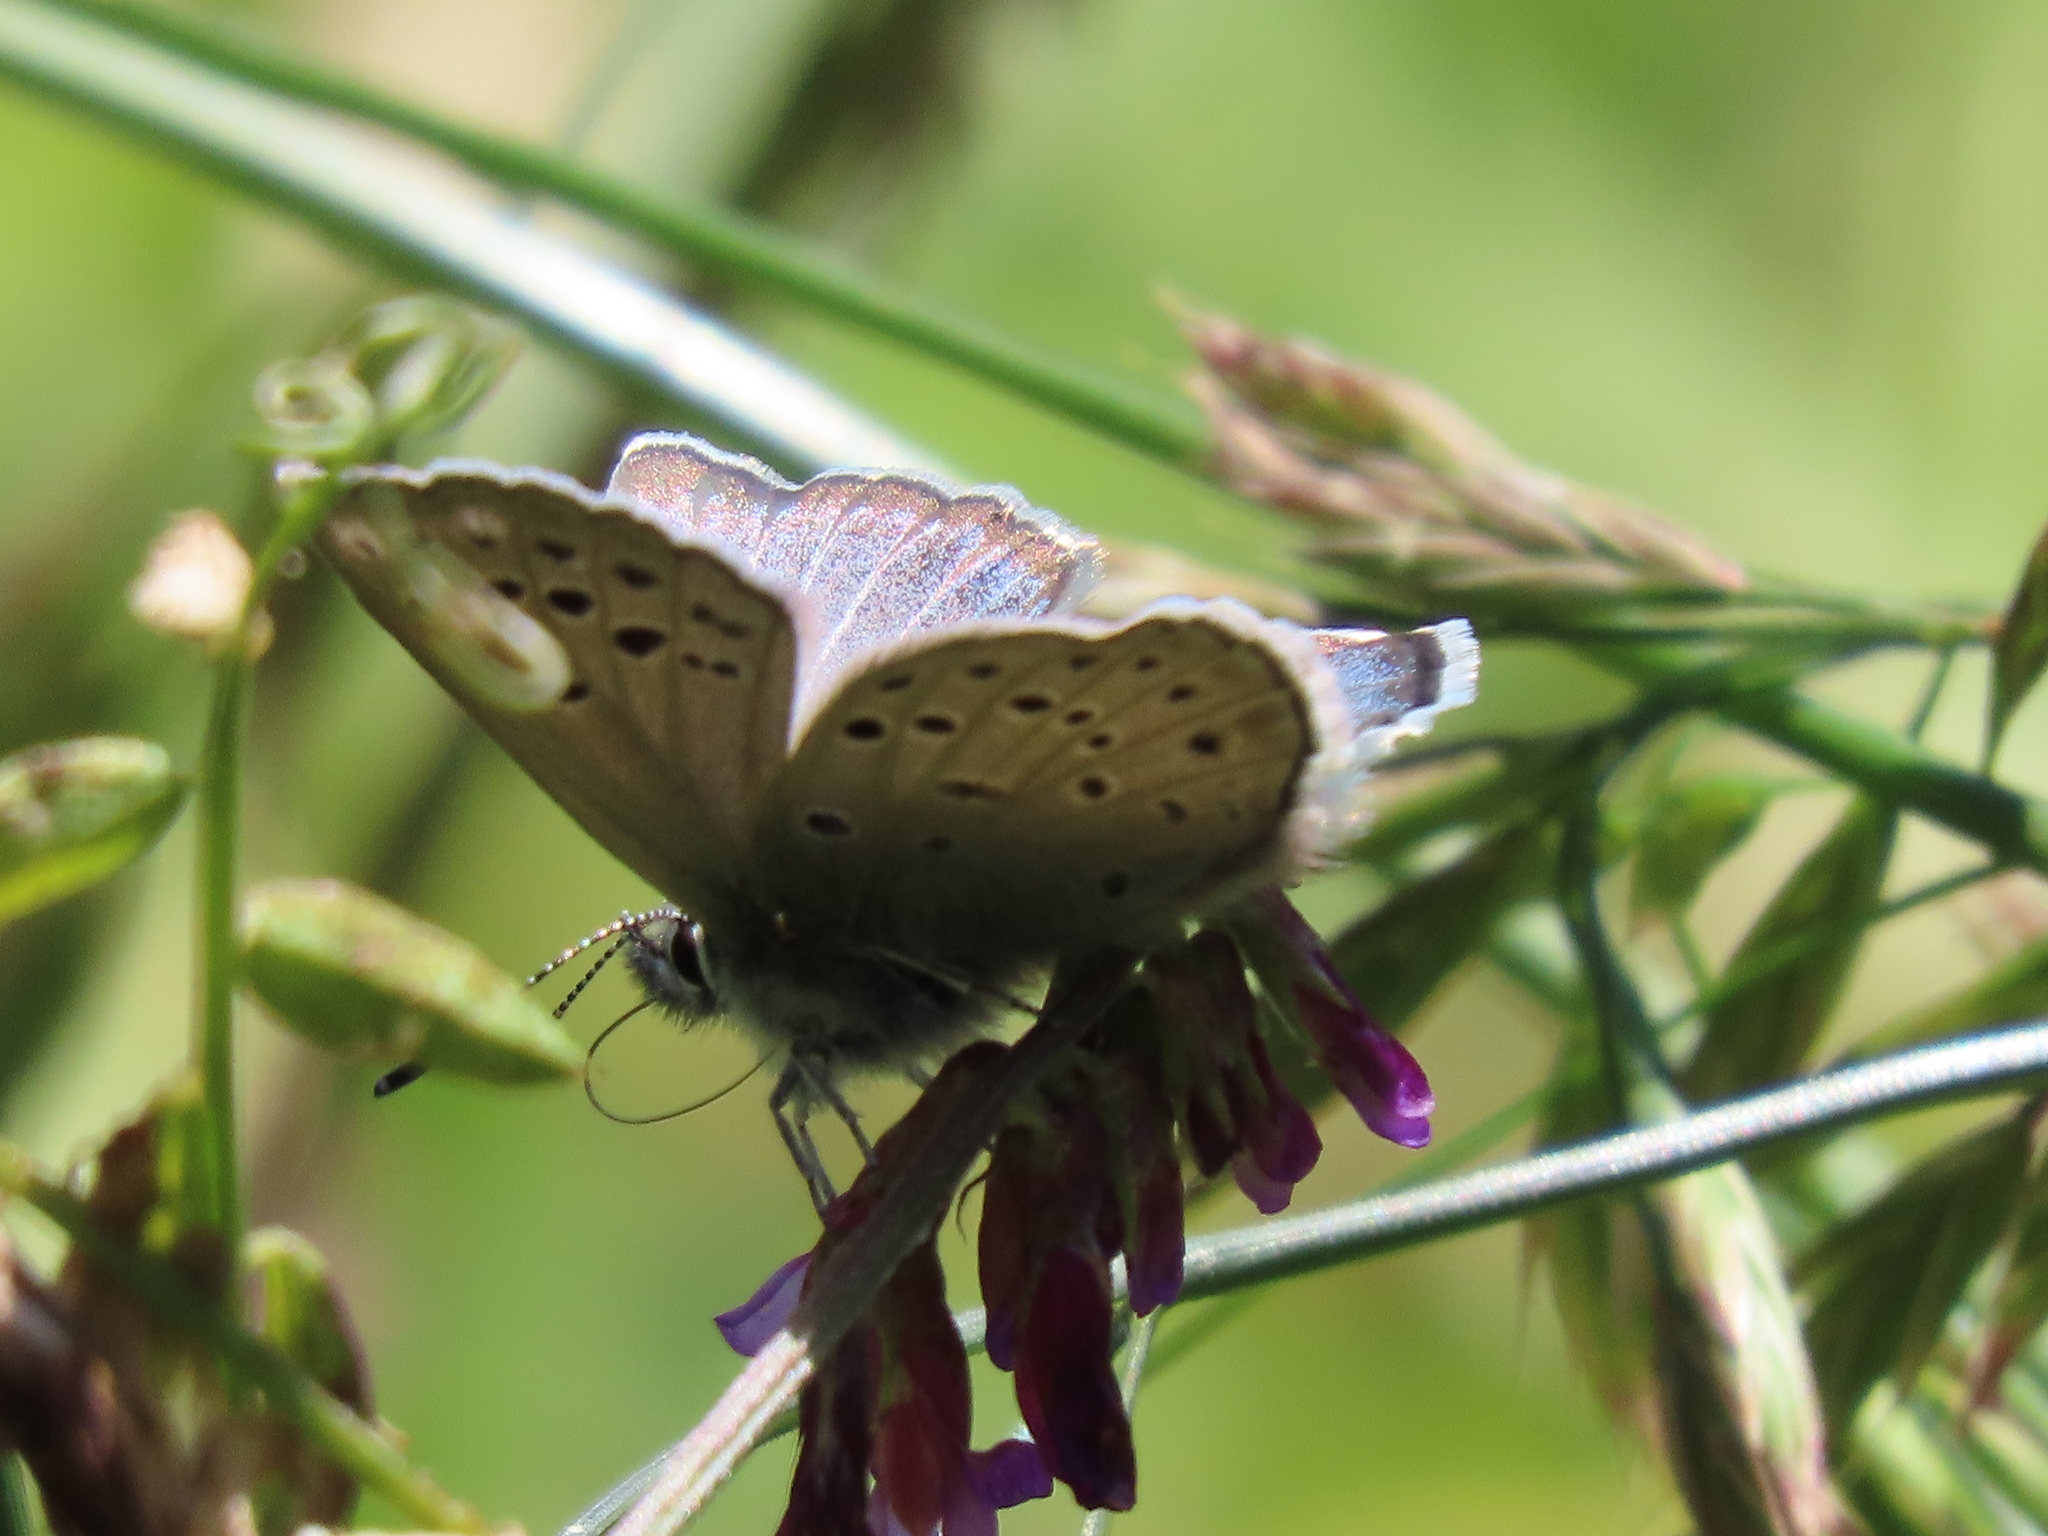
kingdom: Animalia
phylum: Arthropoda
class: Insecta
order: Lepidoptera
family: Lycaenidae
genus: Icaricia
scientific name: Icaricia icarioides
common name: Boisduval's blue
